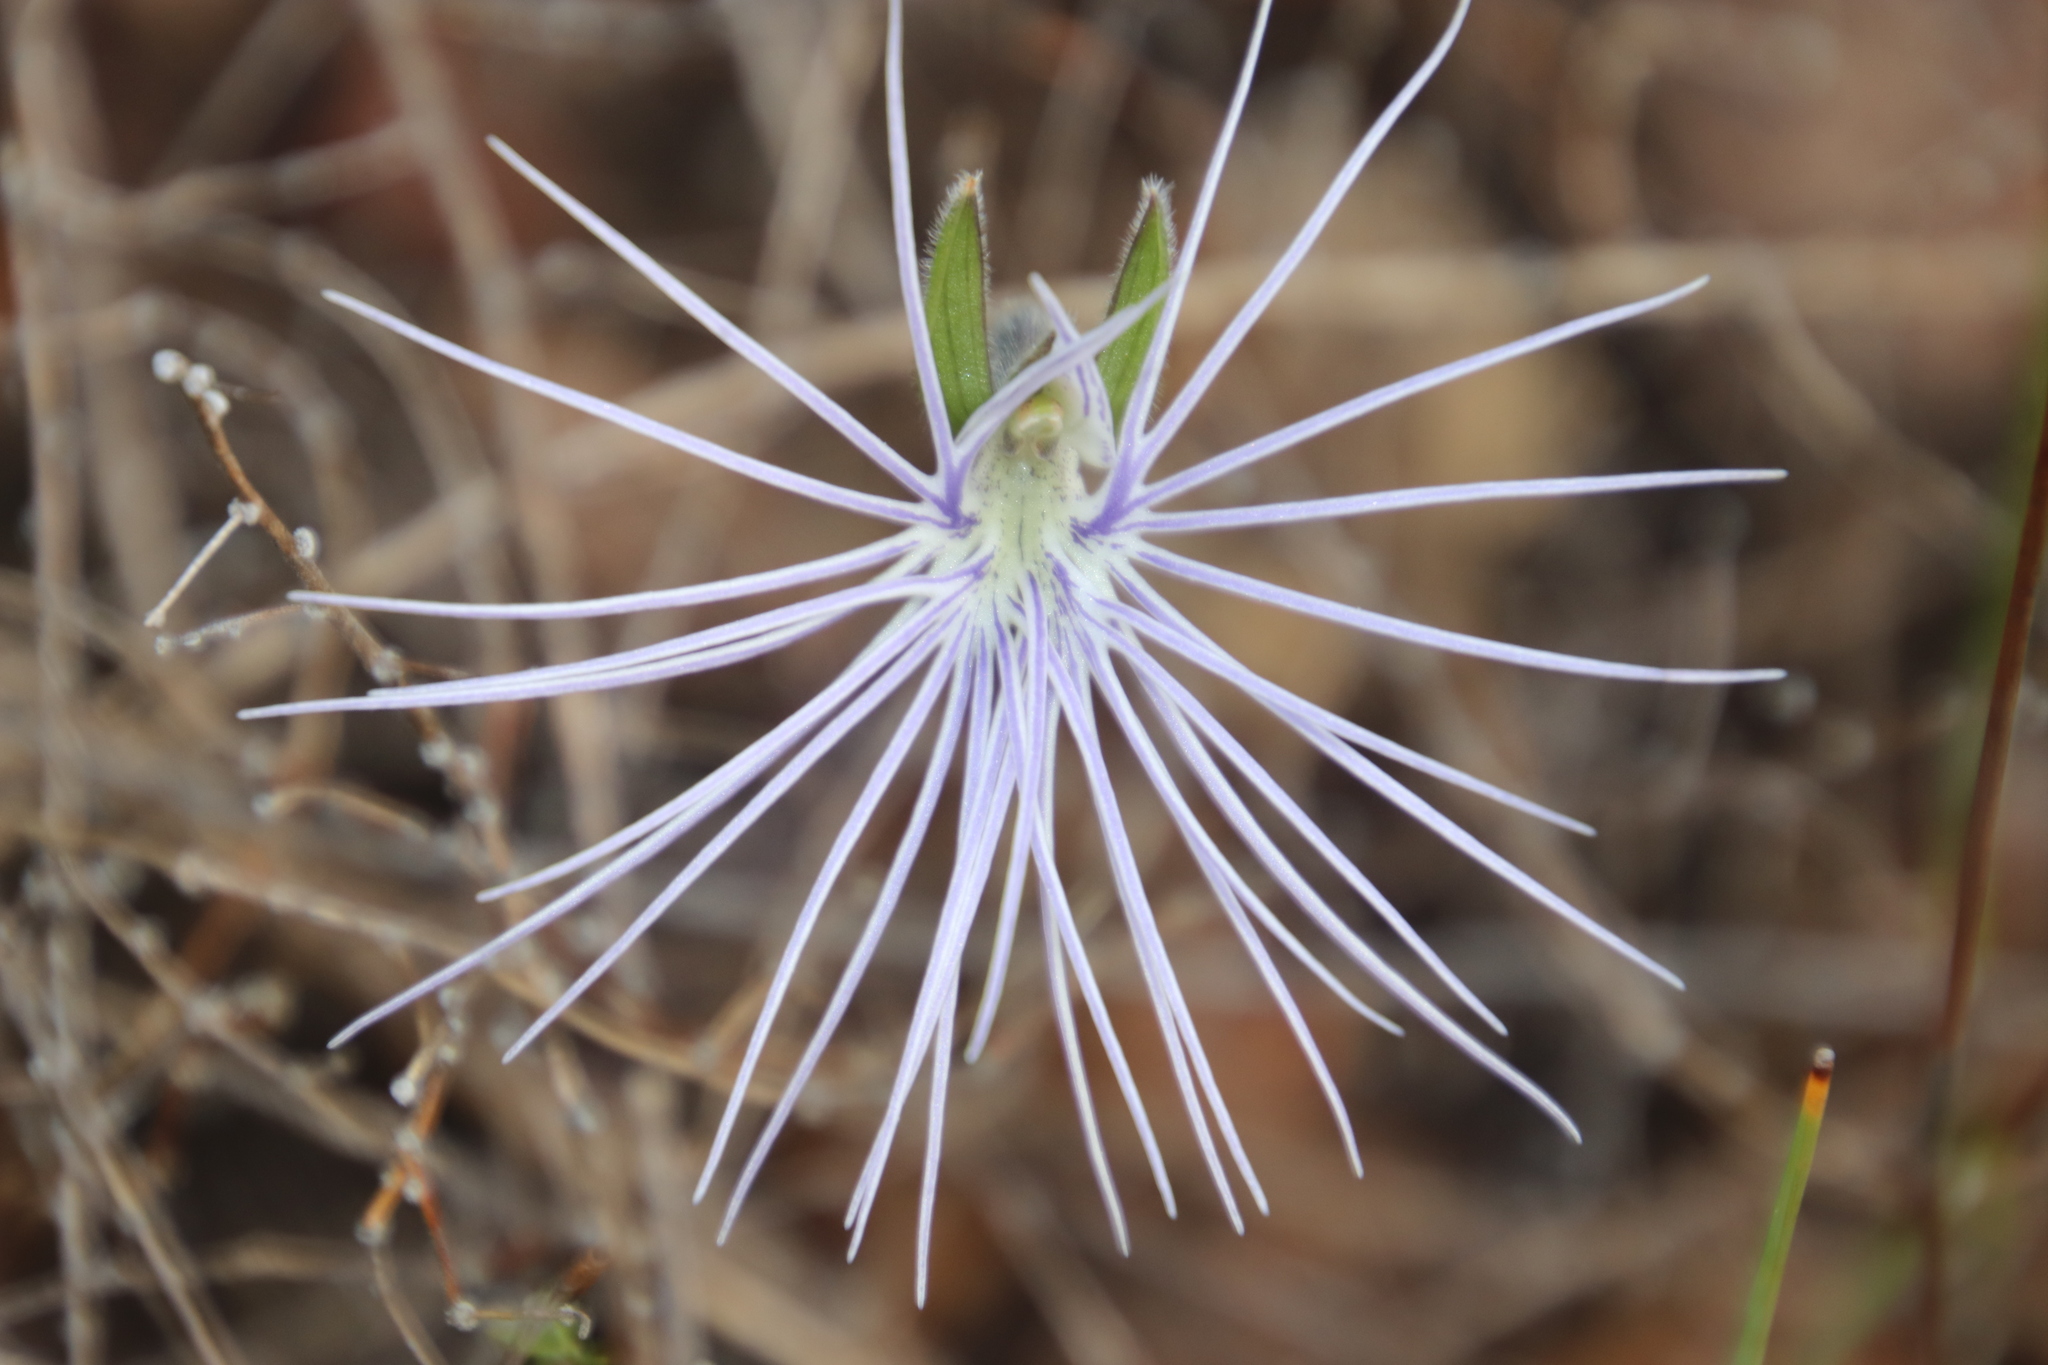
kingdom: Plantae
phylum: Tracheophyta
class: Liliopsida
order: Asparagales
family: Orchidaceae
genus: Holothrix
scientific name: Holothrix burmanniana
